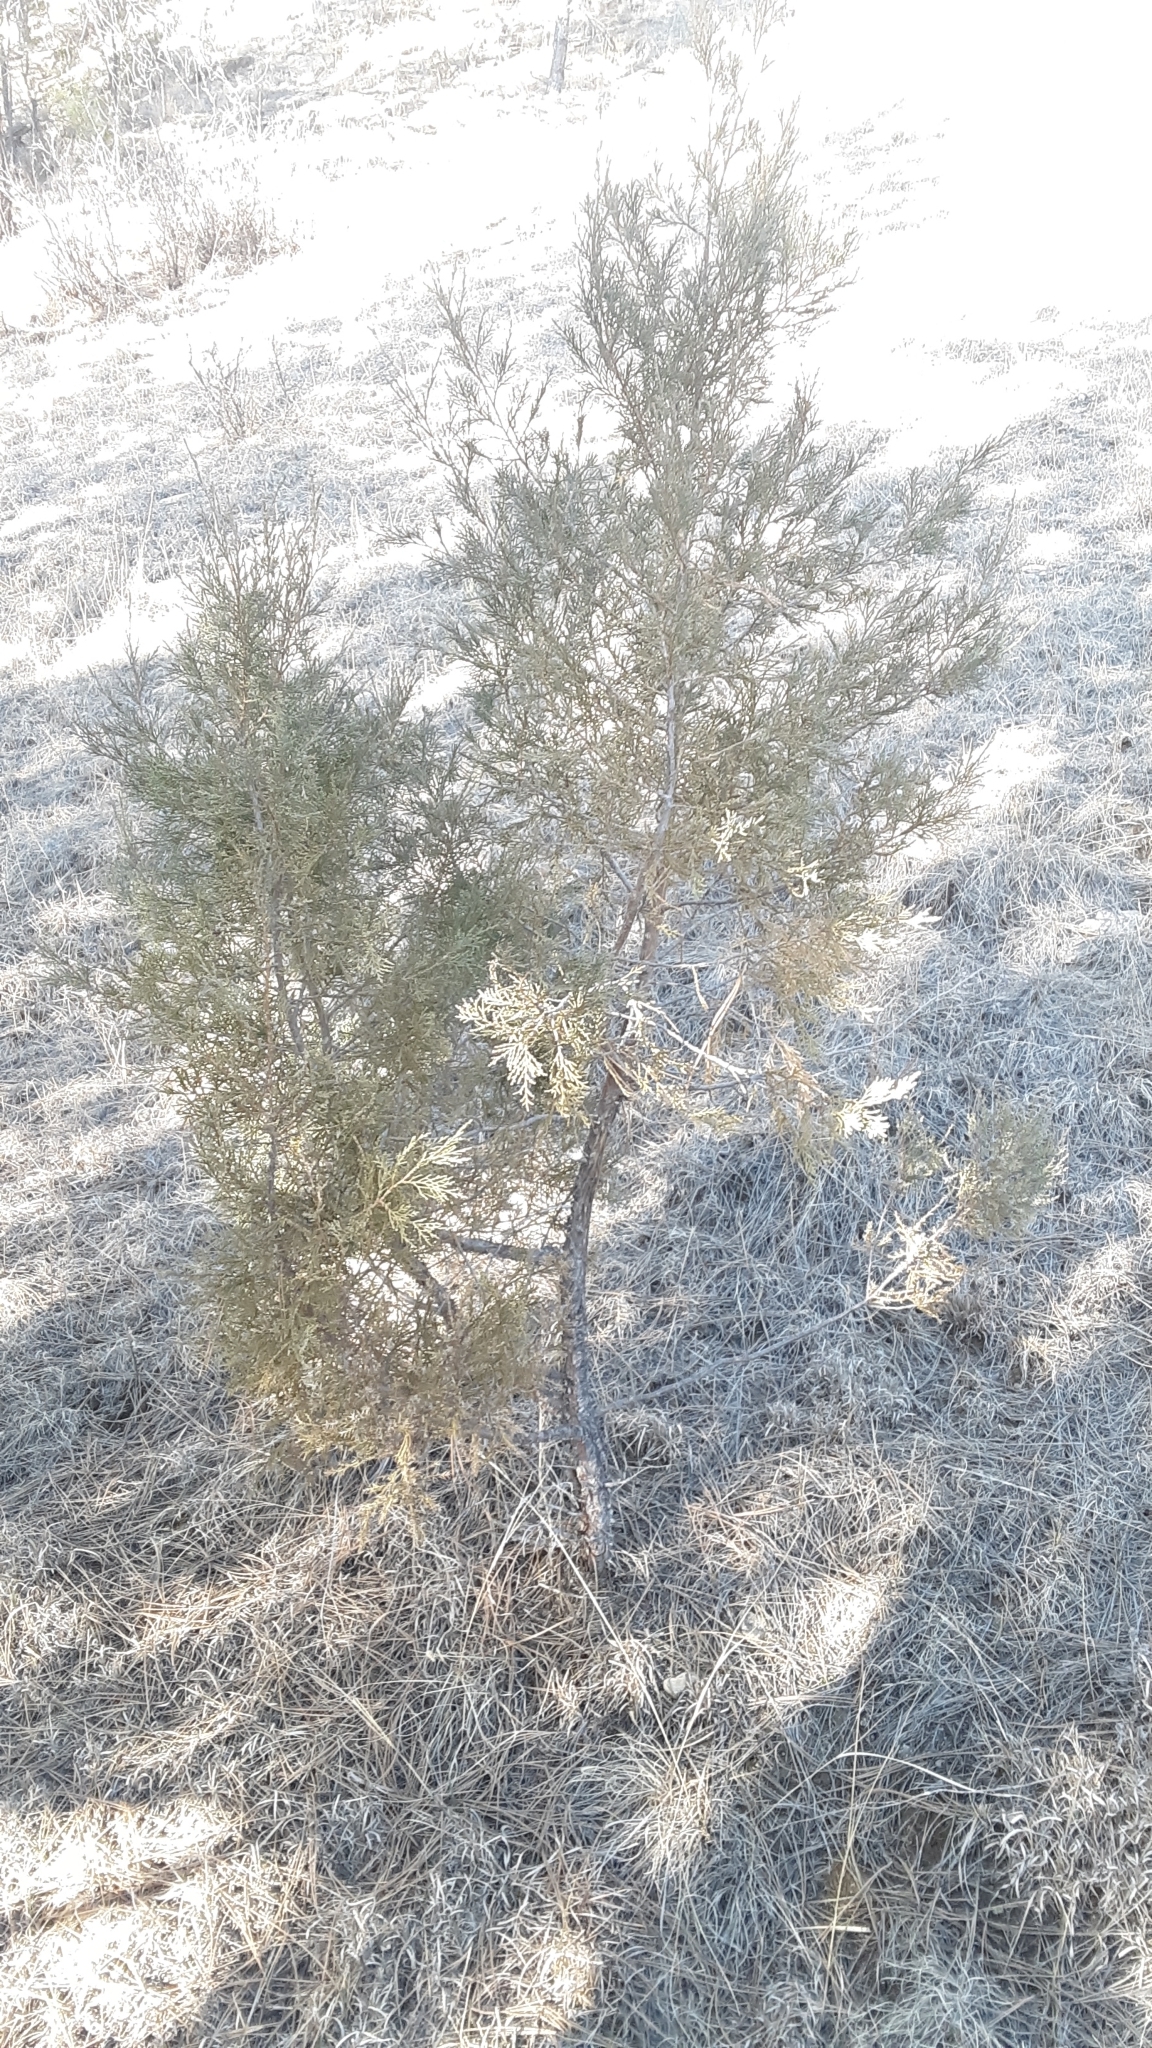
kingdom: Plantae
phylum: Tracheophyta
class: Pinopsida
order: Pinales
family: Cupressaceae
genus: Juniperus
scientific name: Juniperus scopulorum
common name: Rocky mountain juniper
